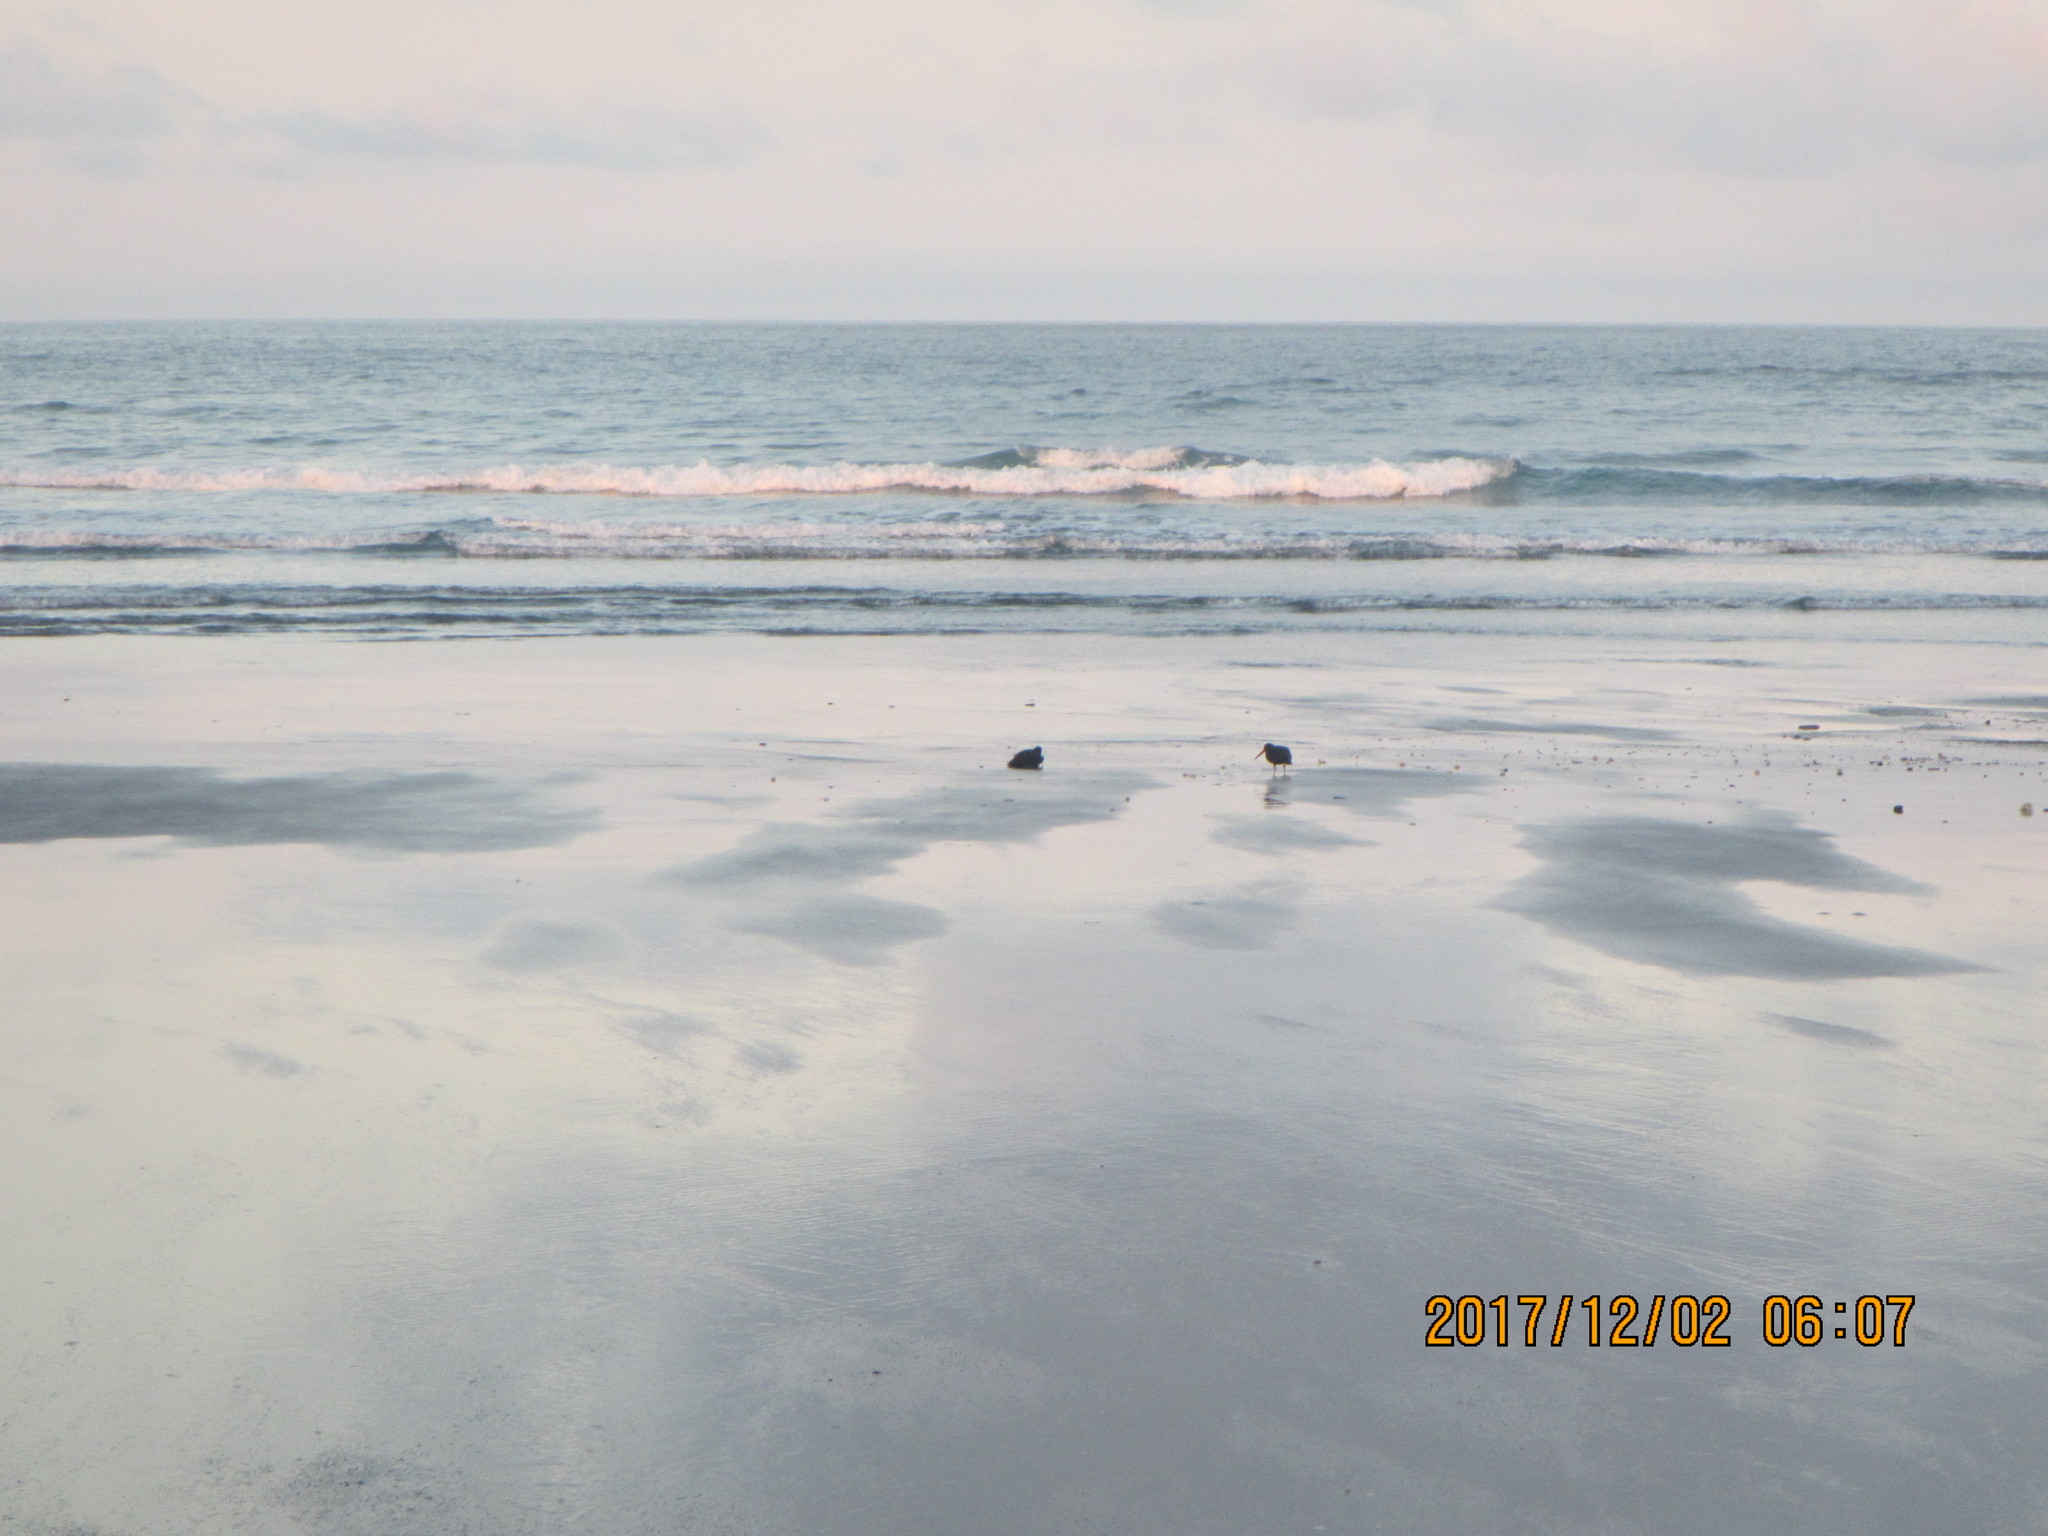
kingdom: Animalia
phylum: Chordata
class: Aves
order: Charadriiformes
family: Haematopodidae
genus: Haematopus
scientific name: Haematopus unicolor
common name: Variable oystercatcher
